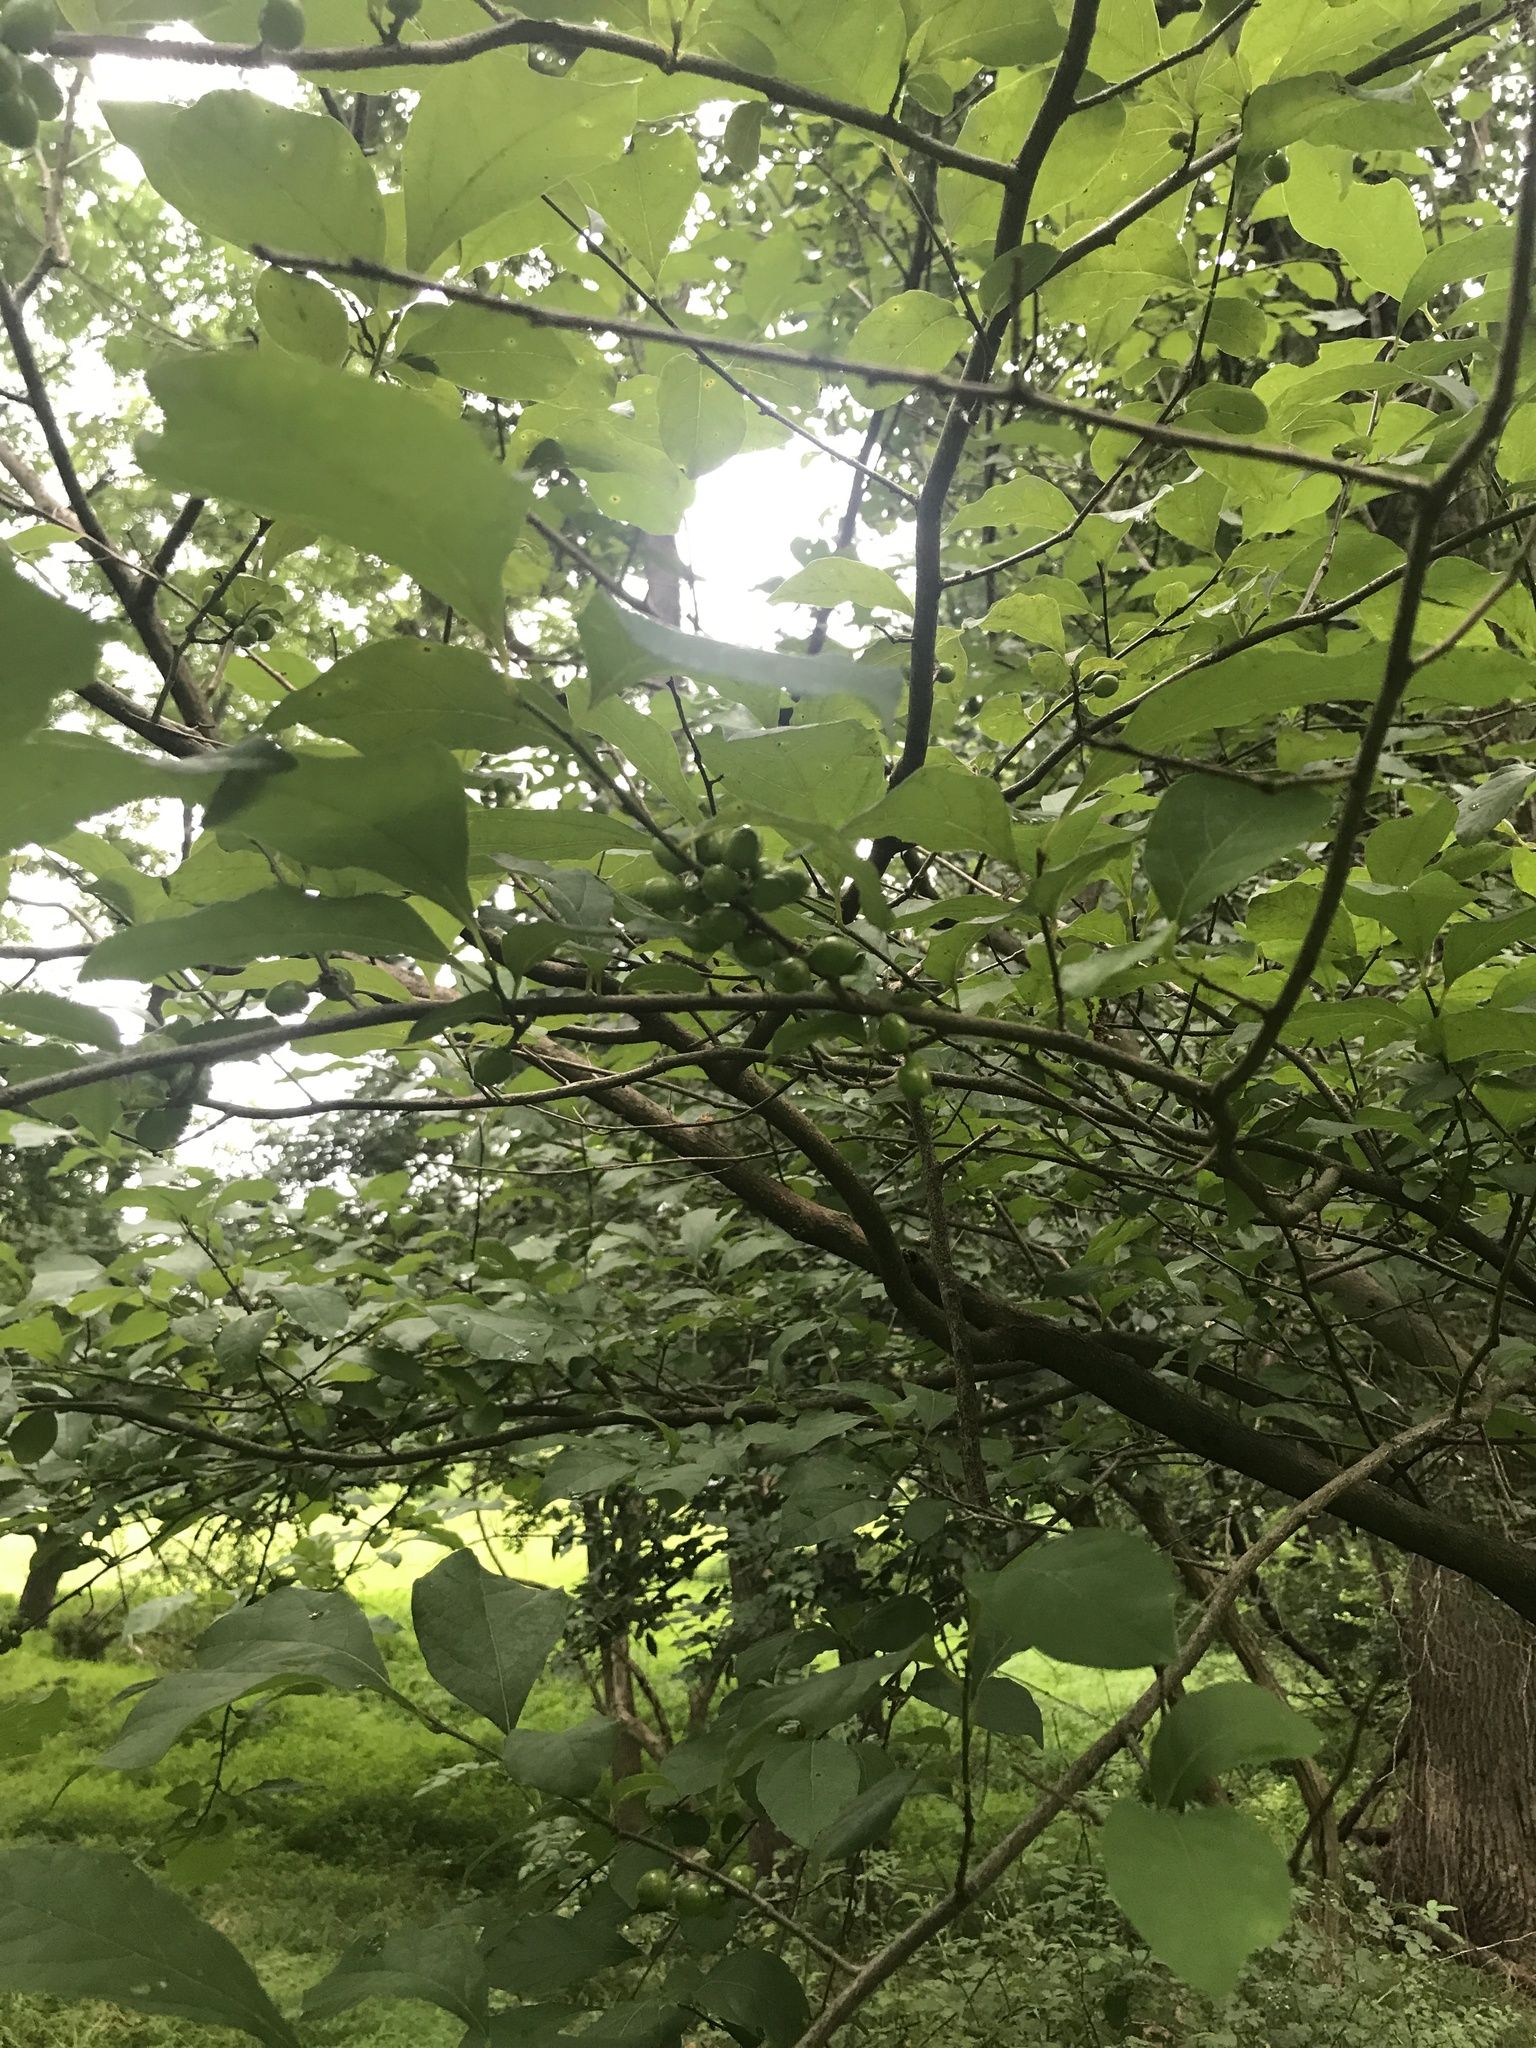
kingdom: Plantae
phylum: Tracheophyta
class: Magnoliopsida
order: Laurales
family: Lauraceae
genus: Lindera
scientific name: Lindera benzoin
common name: Spicebush
